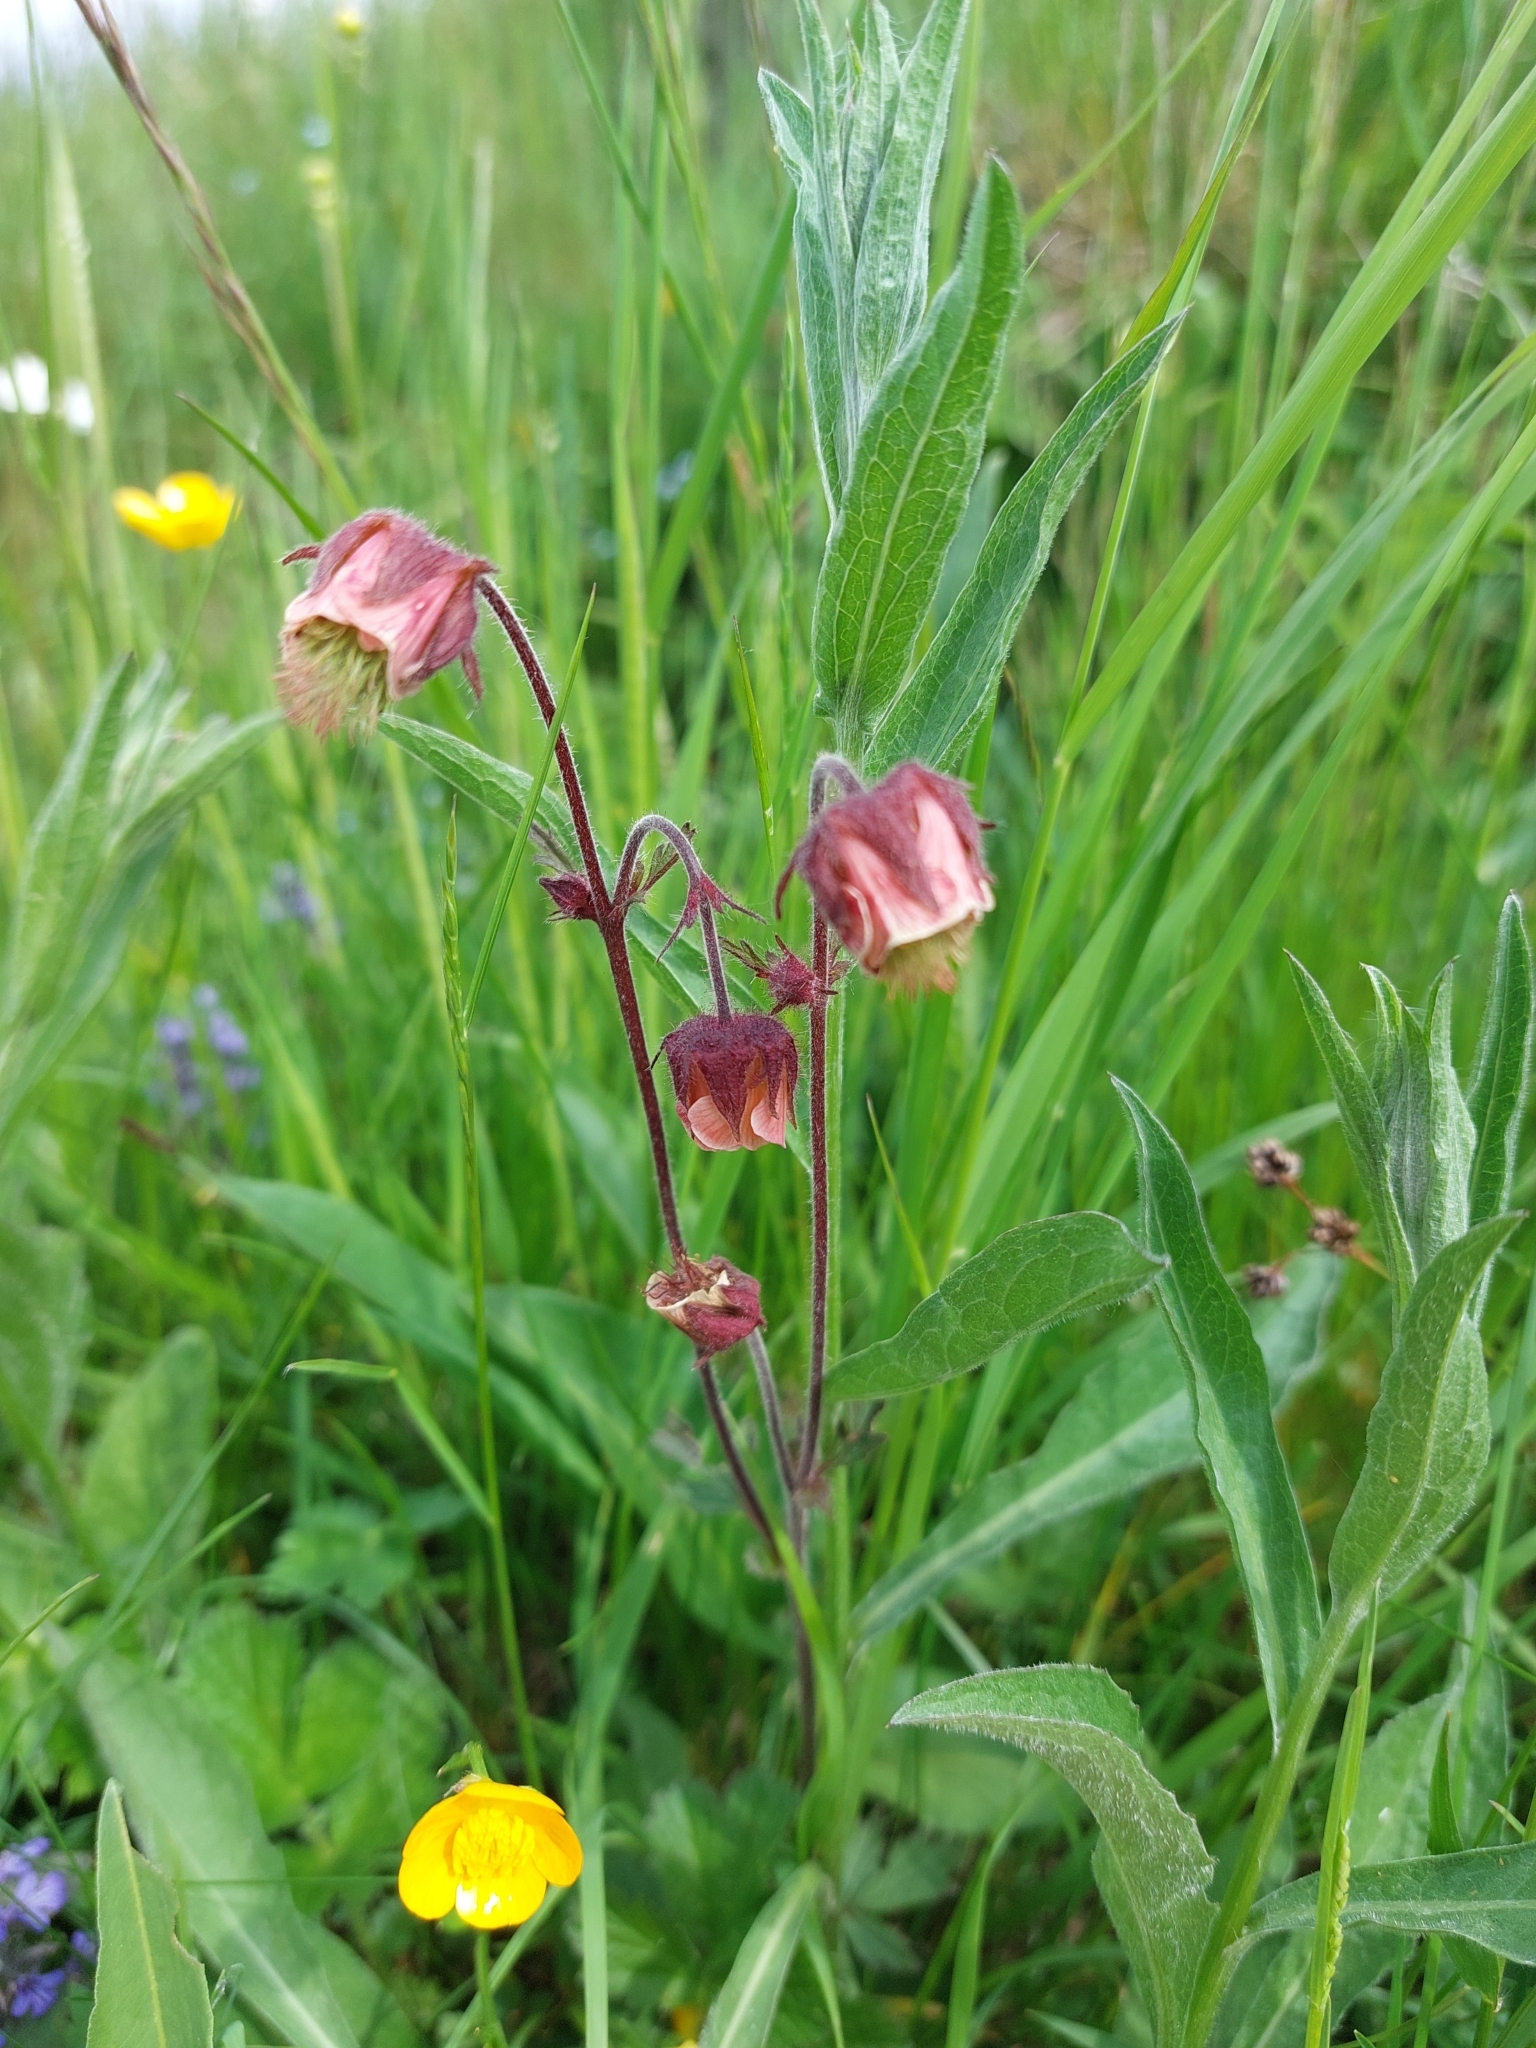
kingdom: Plantae
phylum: Tracheophyta
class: Magnoliopsida
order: Rosales
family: Rosaceae
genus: Geum
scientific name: Geum rivale
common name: Water avens
